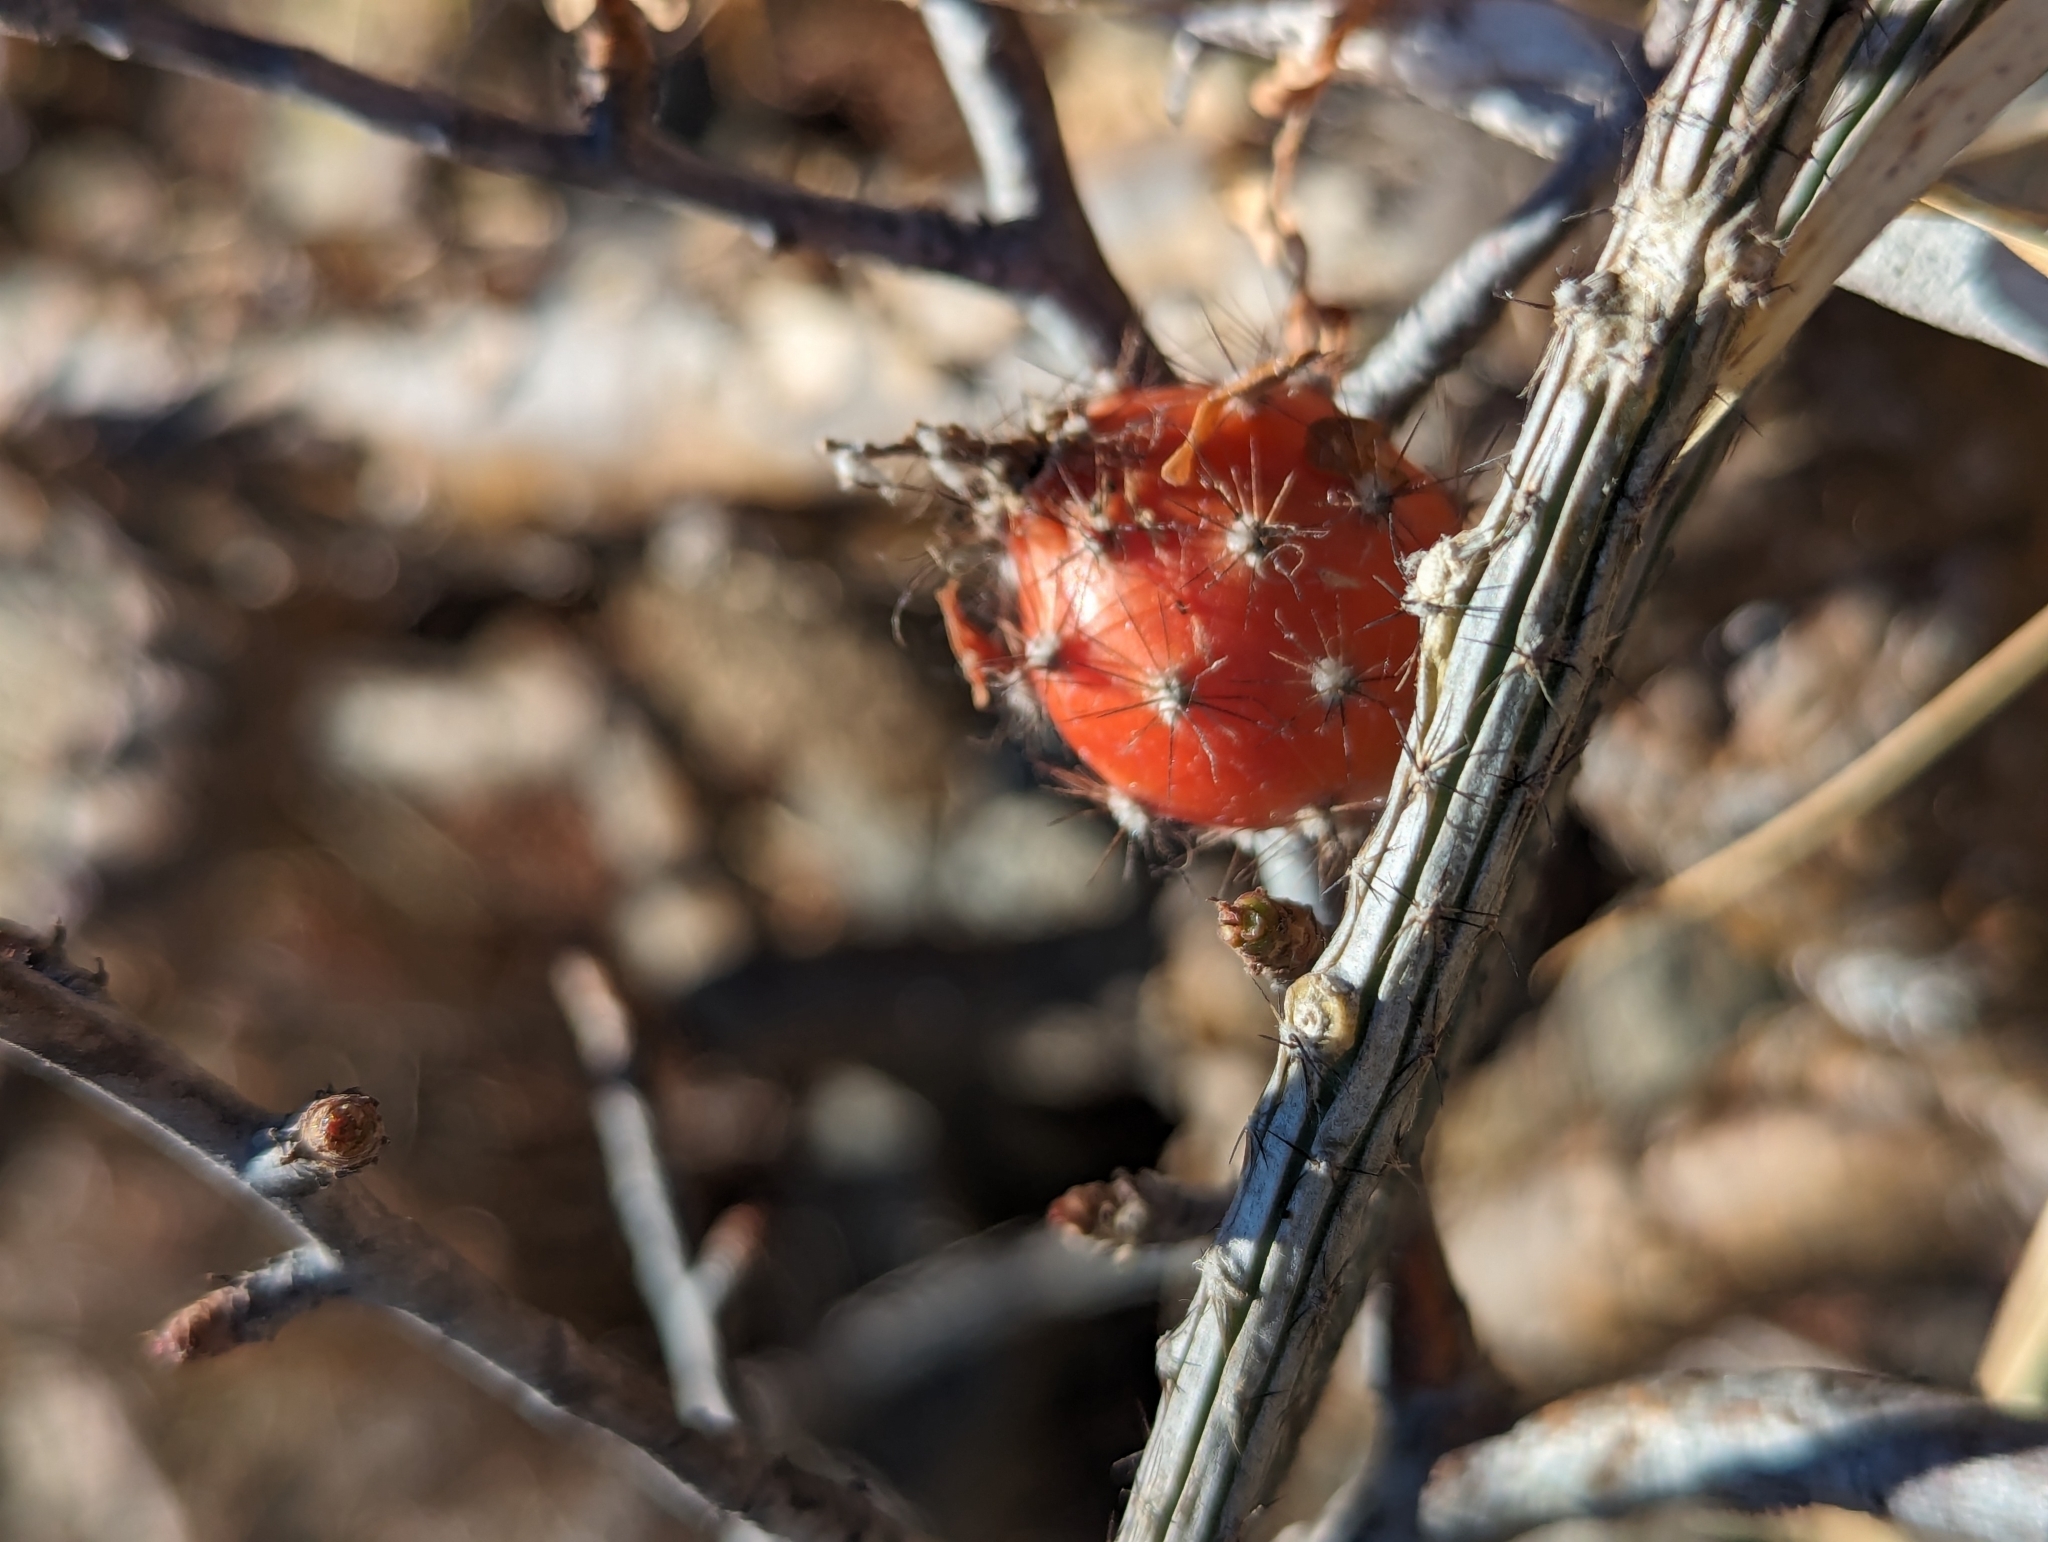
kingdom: Plantae
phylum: Tracheophyta
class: Magnoliopsida
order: Caryophyllales
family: Cactaceae
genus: Peniocereus
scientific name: Peniocereus striatus
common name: Gearstem cactus
